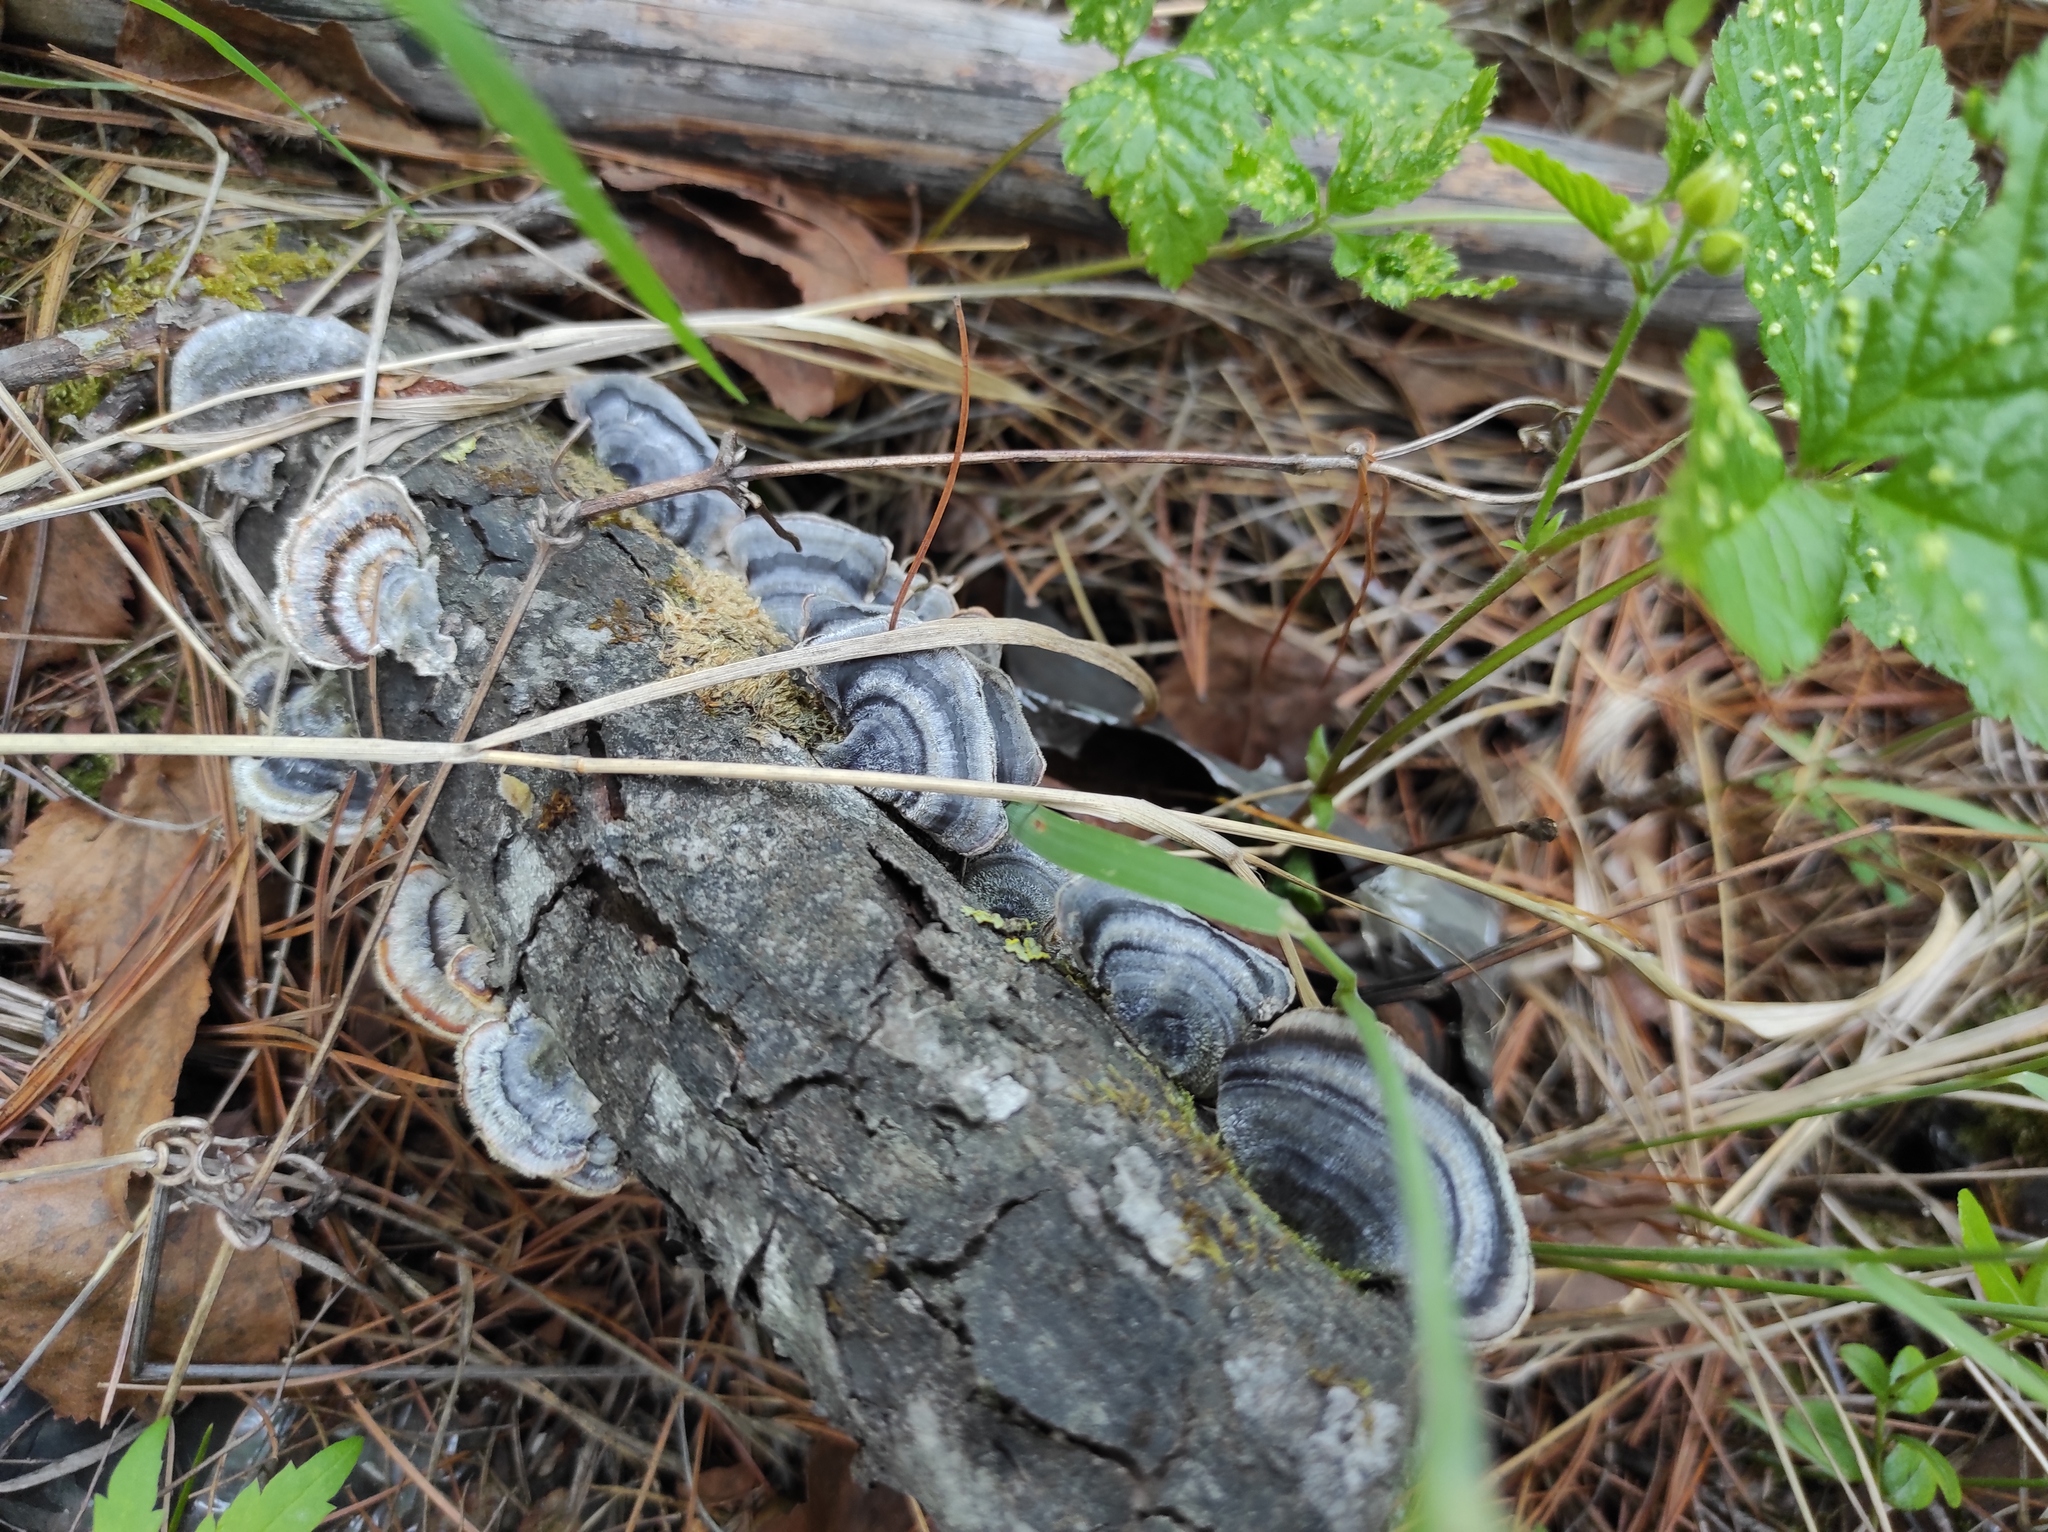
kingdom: Plantae
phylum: Tracheophyta
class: Magnoliopsida
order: Rosales
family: Rosaceae
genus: Rubus
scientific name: Rubus arcticus
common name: Arctic bramble
